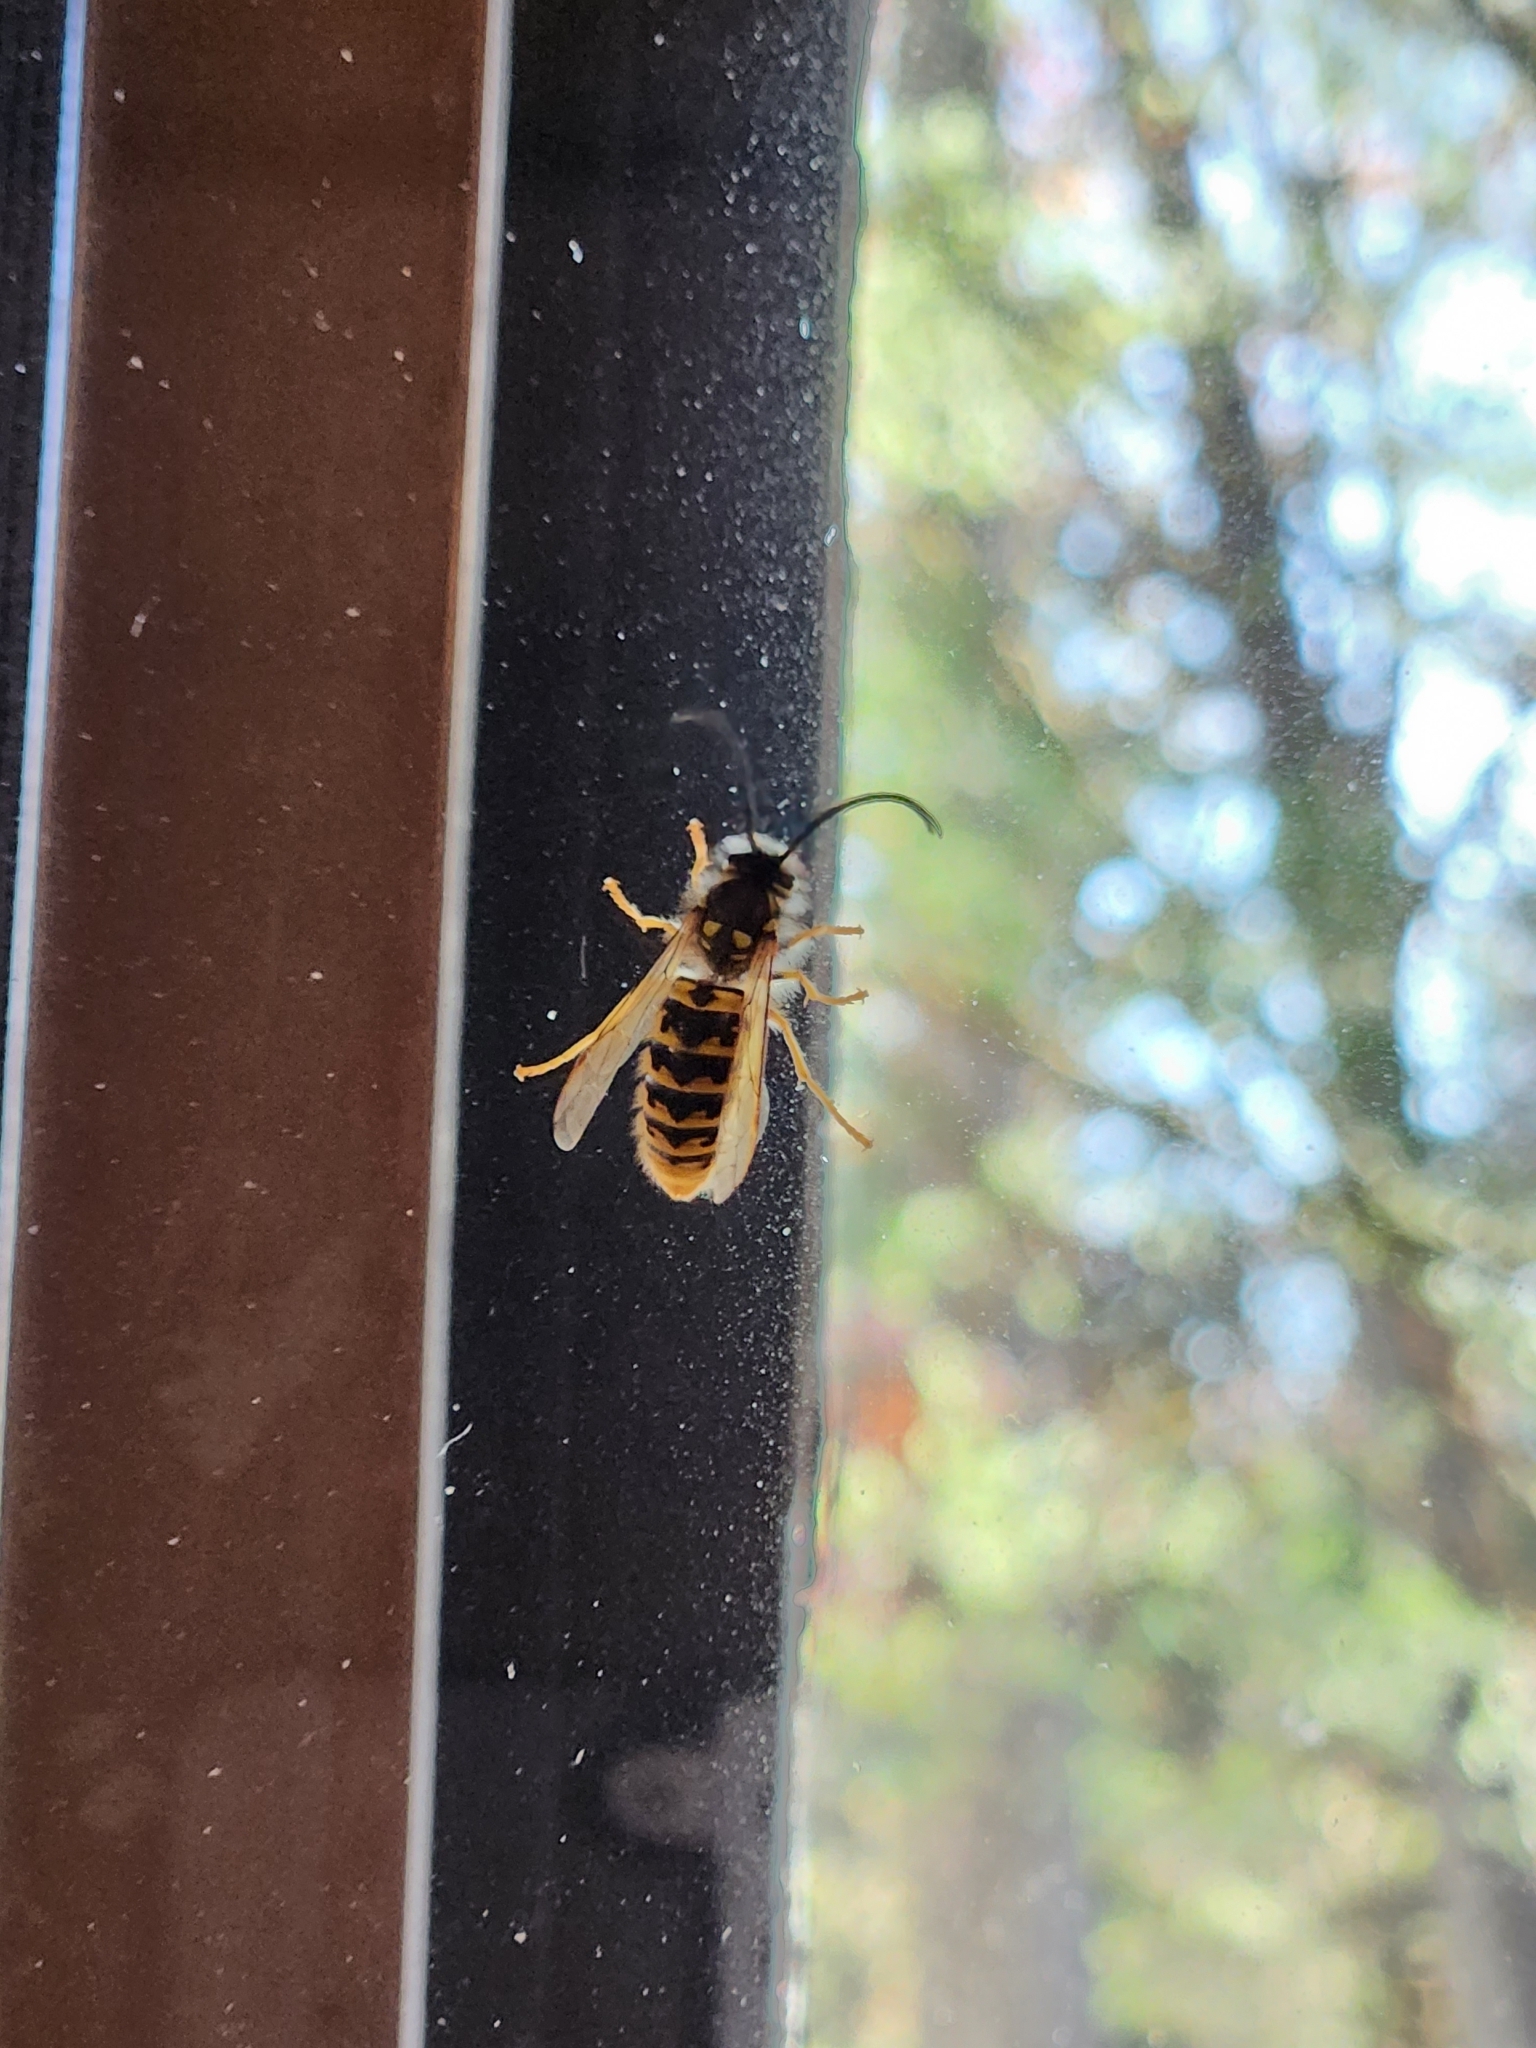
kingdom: Animalia
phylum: Arthropoda
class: Insecta
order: Hymenoptera
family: Vespidae
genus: Vespula
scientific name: Vespula germanica
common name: German wasp
